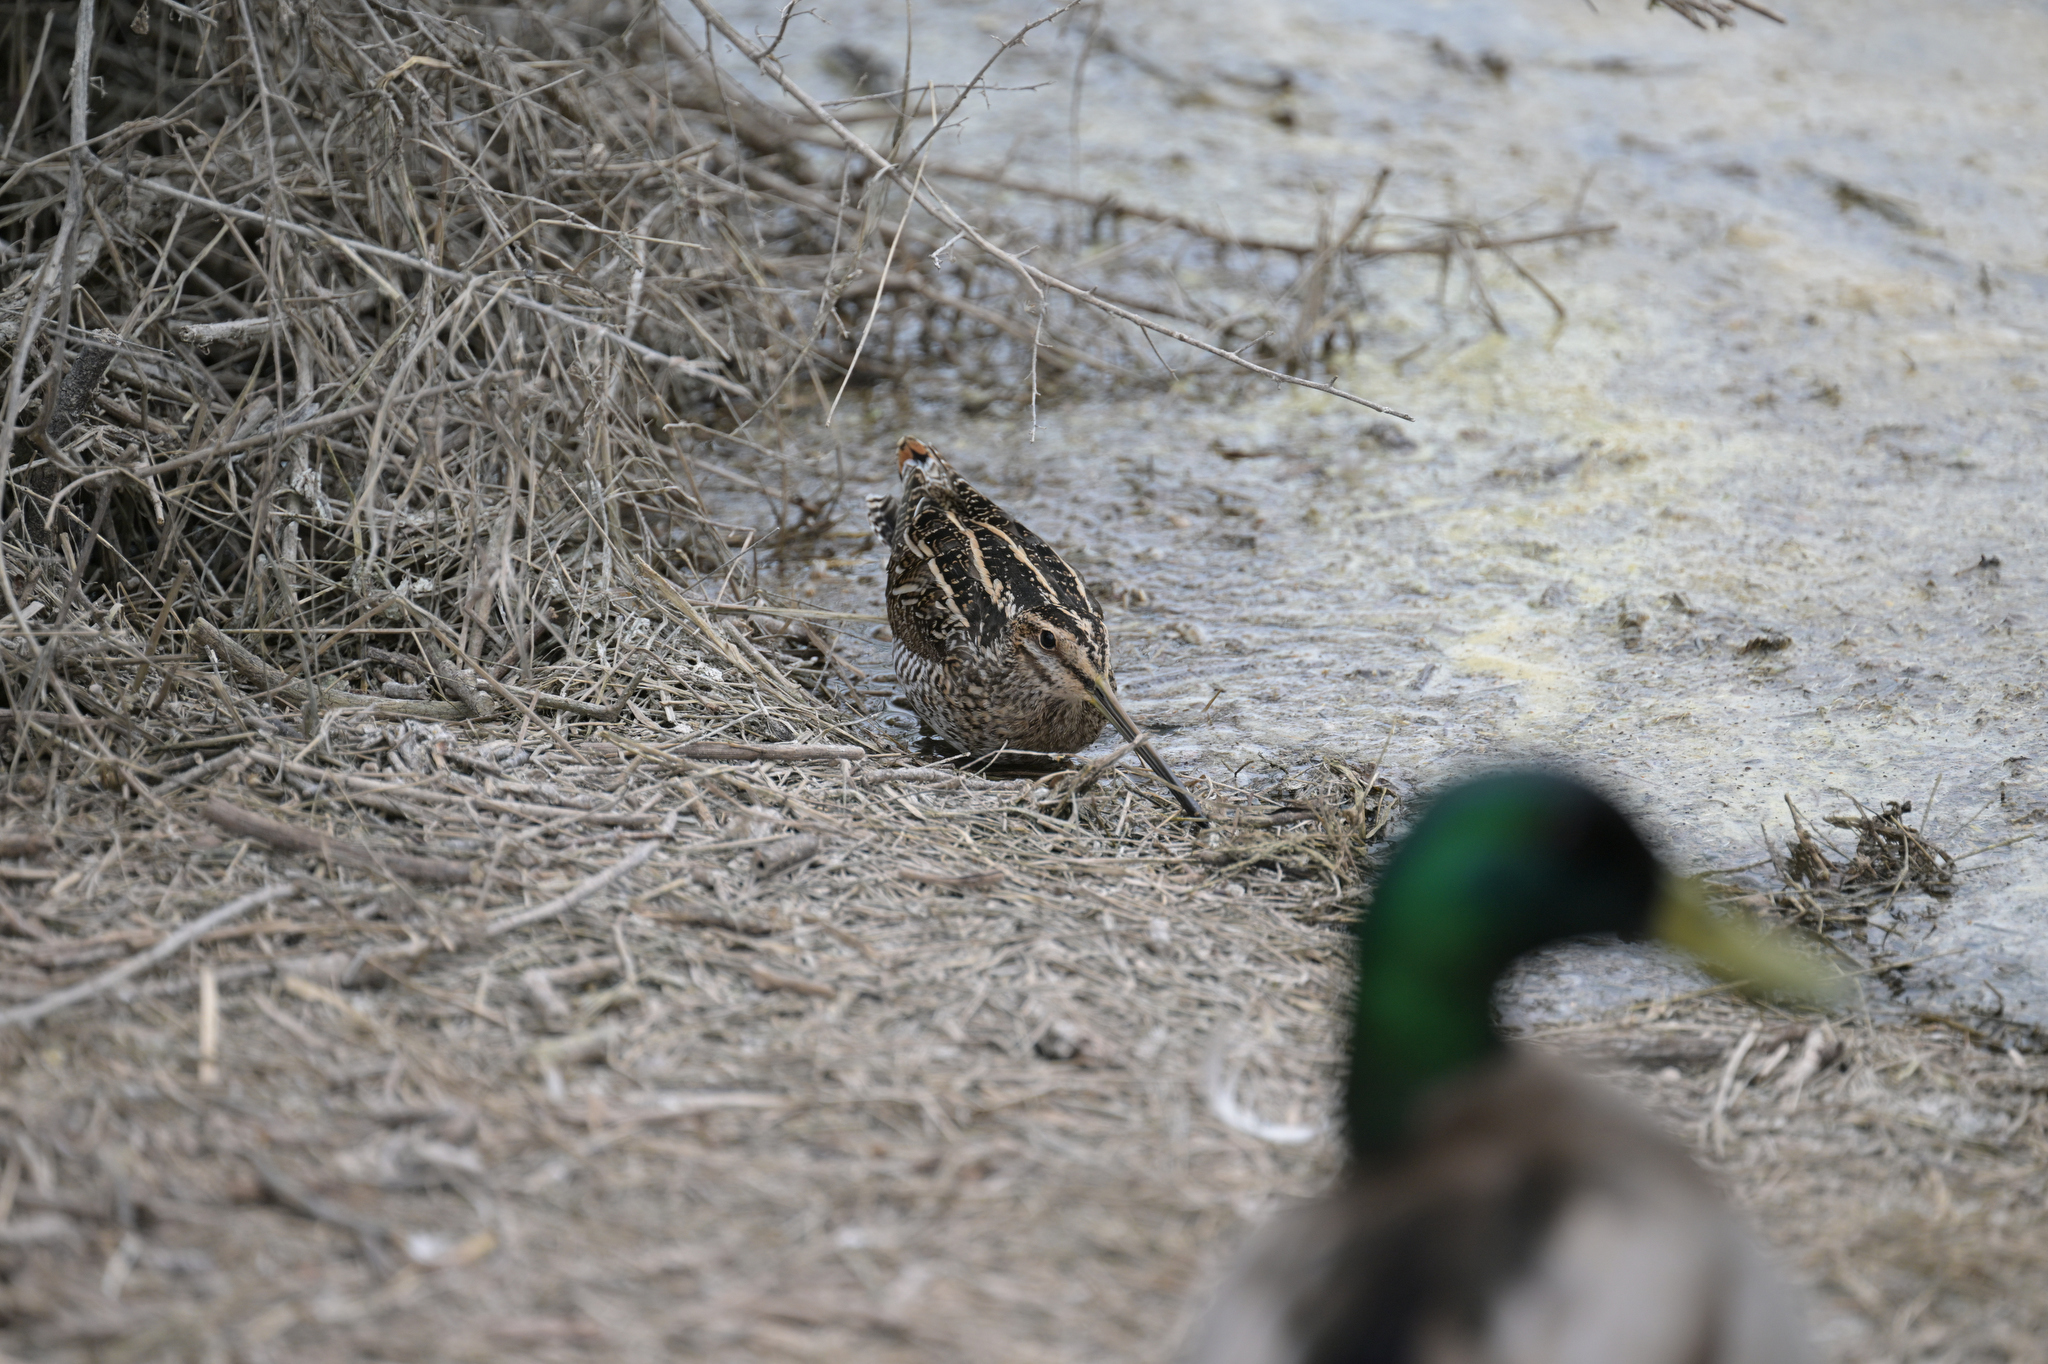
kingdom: Animalia
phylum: Chordata
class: Aves
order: Charadriiformes
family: Scolopacidae
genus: Gallinago
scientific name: Gallinago delicata
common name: Wilson's snipe
